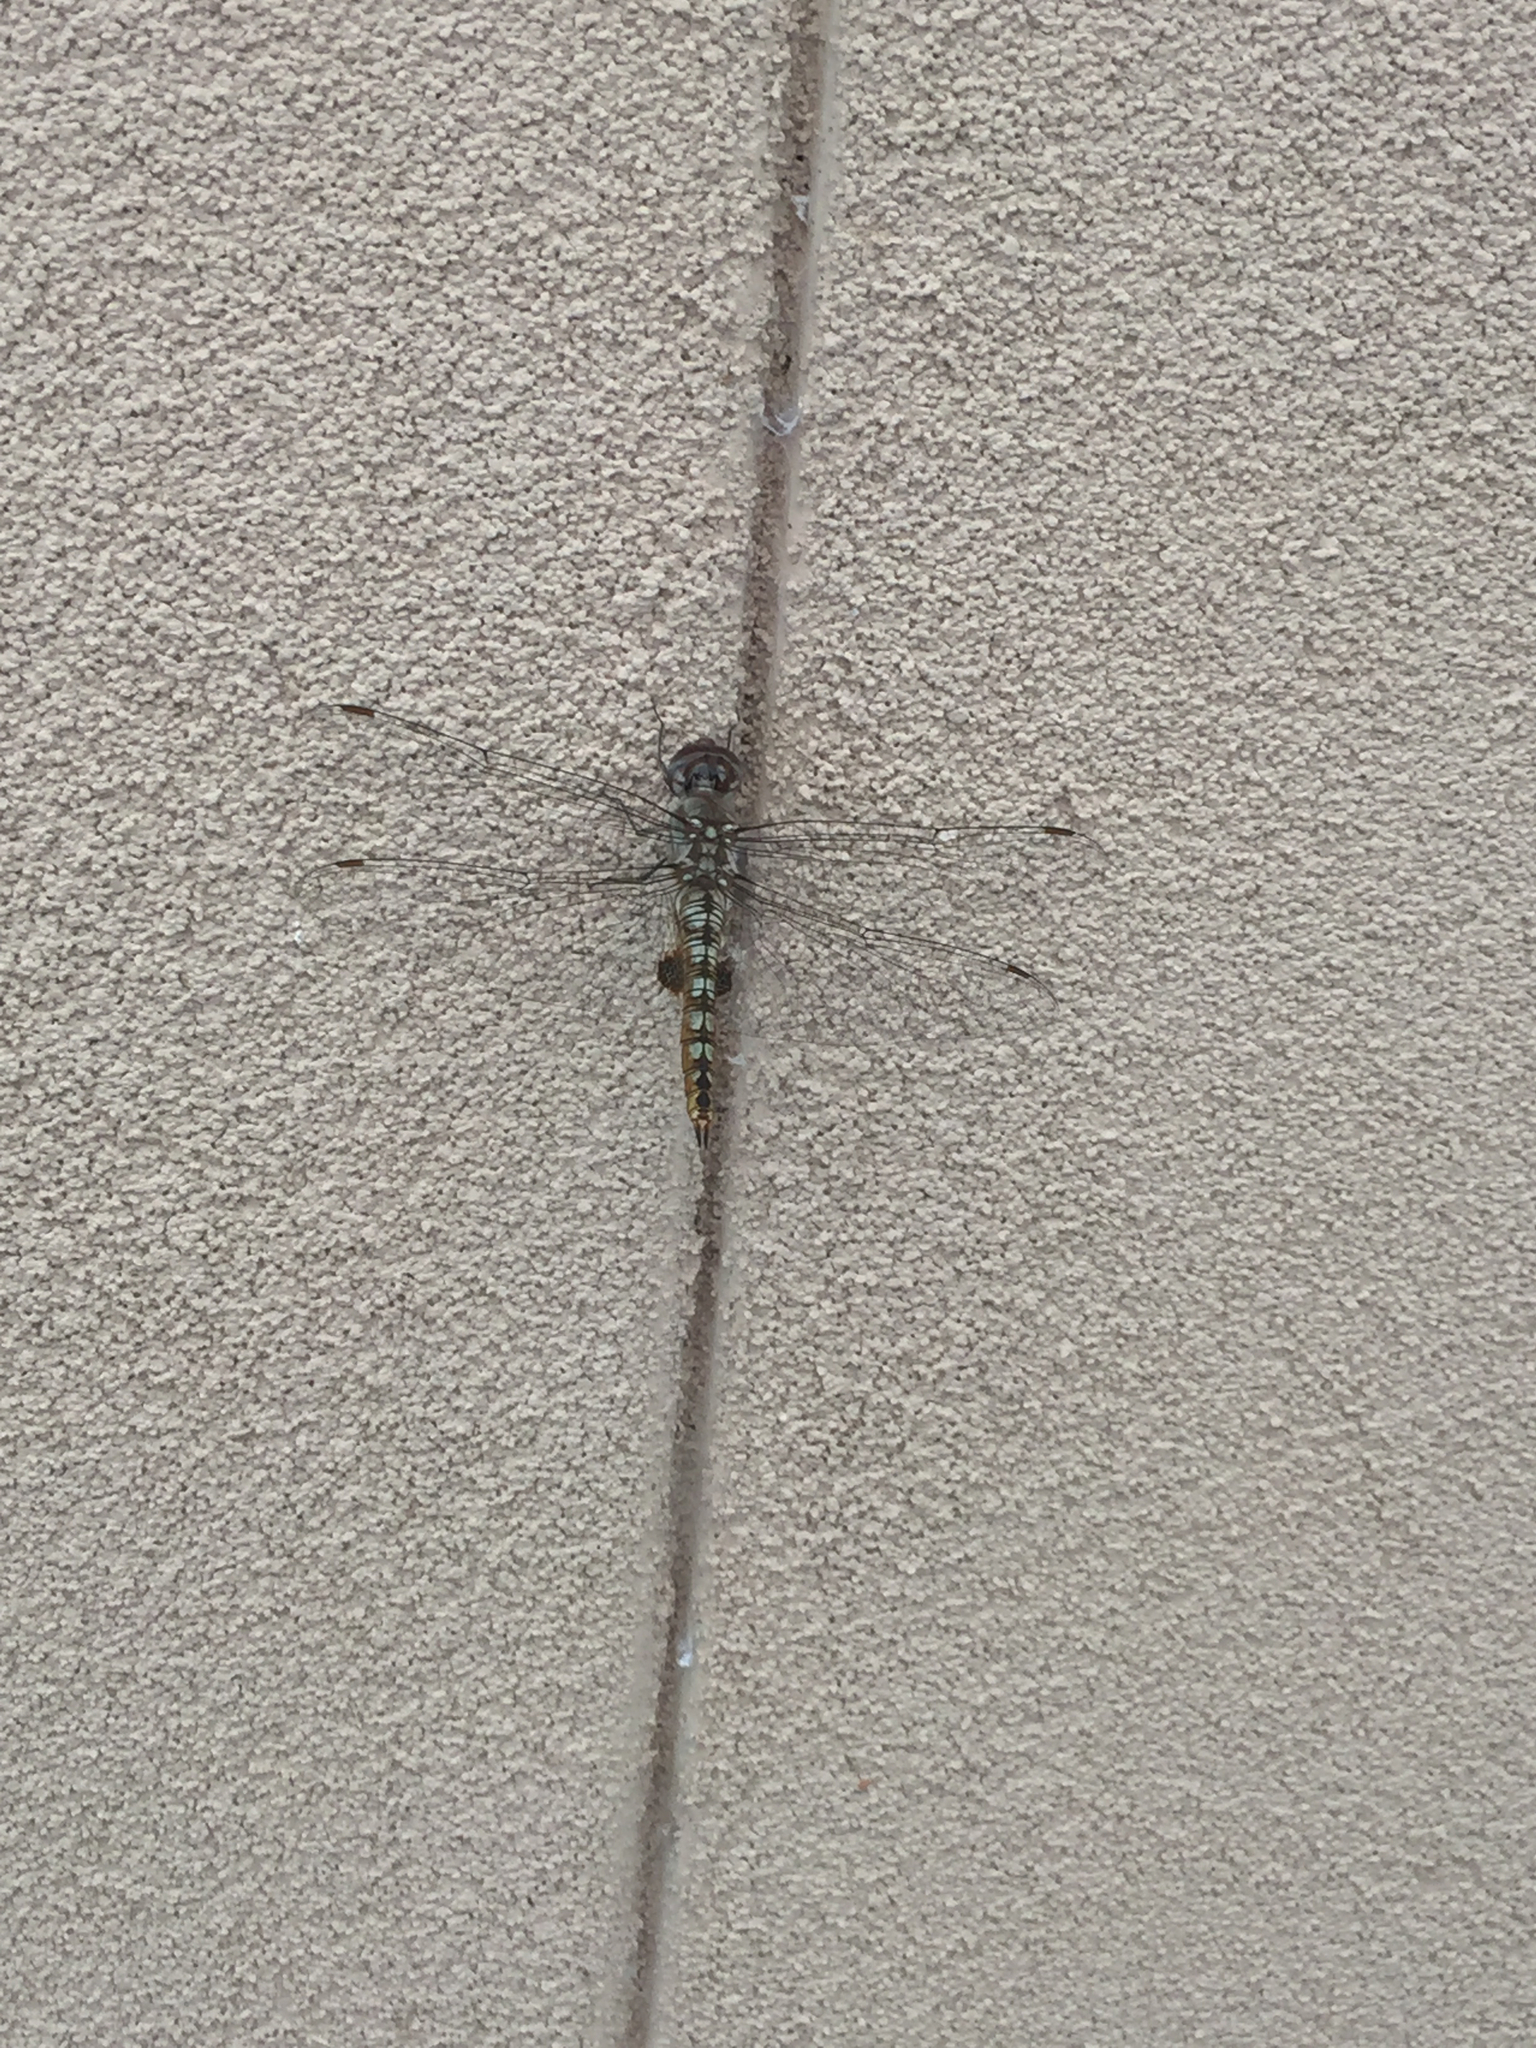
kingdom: Animalia
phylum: Arthropoda
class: Insecta
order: Odonata
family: Libellulidae
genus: Pantala
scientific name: Pantala hymenaea
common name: Spot-winged glider
